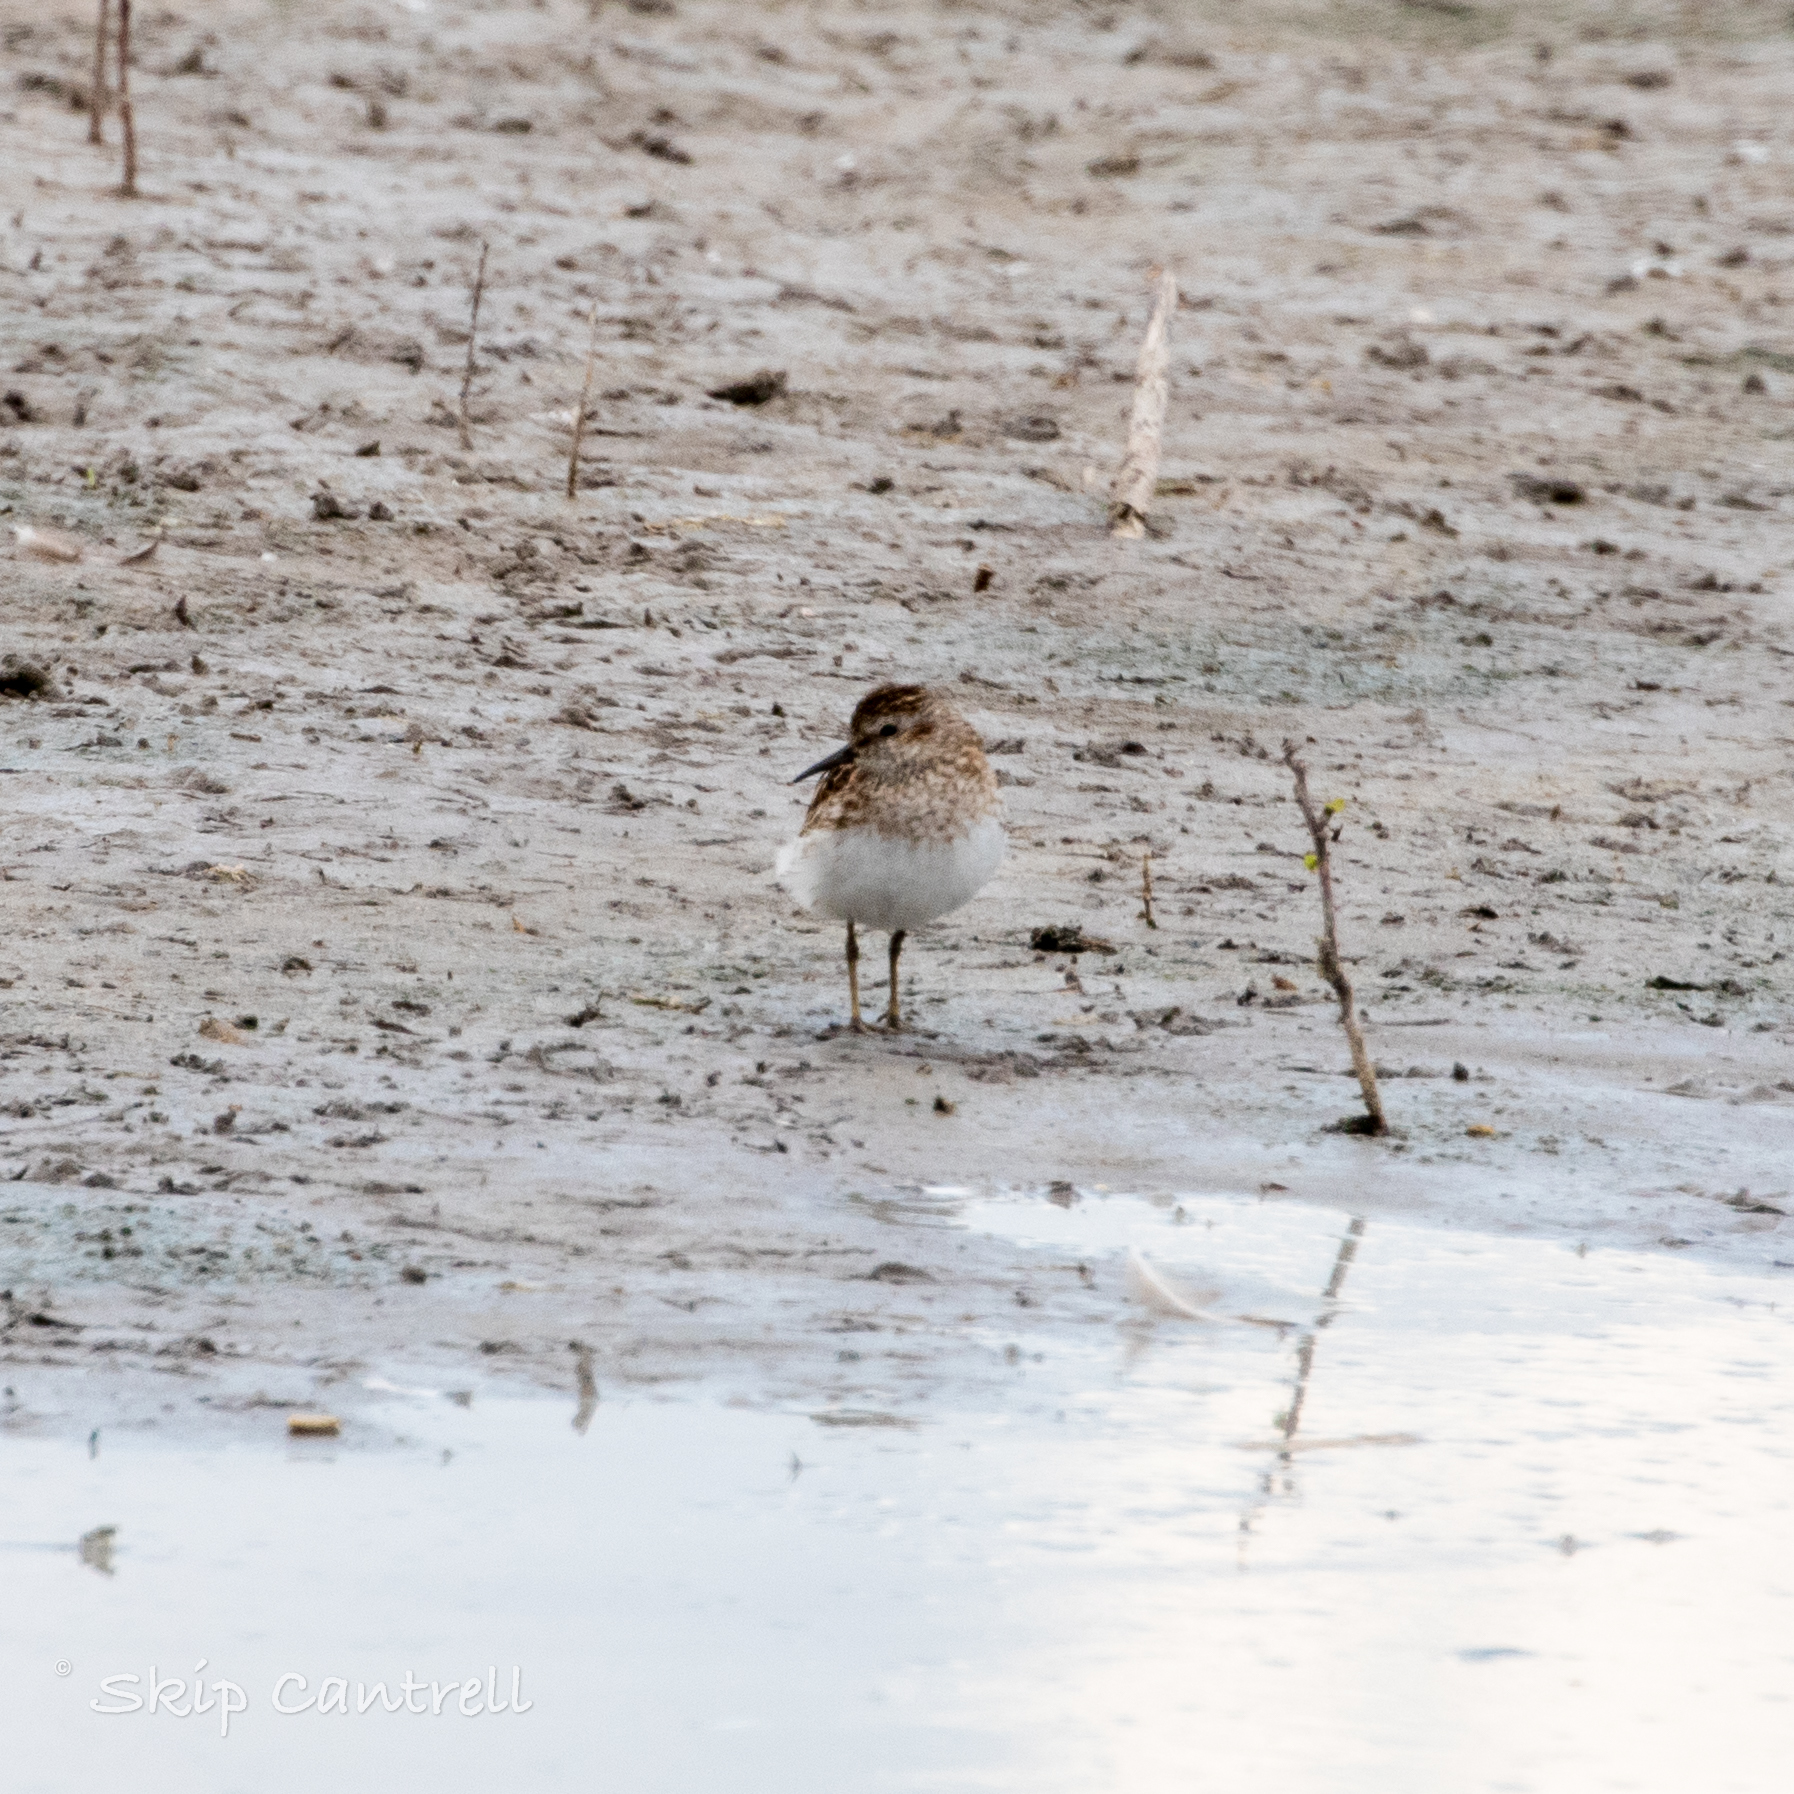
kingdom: Animalia
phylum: Chordata
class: Aves
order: Charadriiformes
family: Scolopacidae
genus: Calidris
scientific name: Calidris minutilla
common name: Least sandpiper
